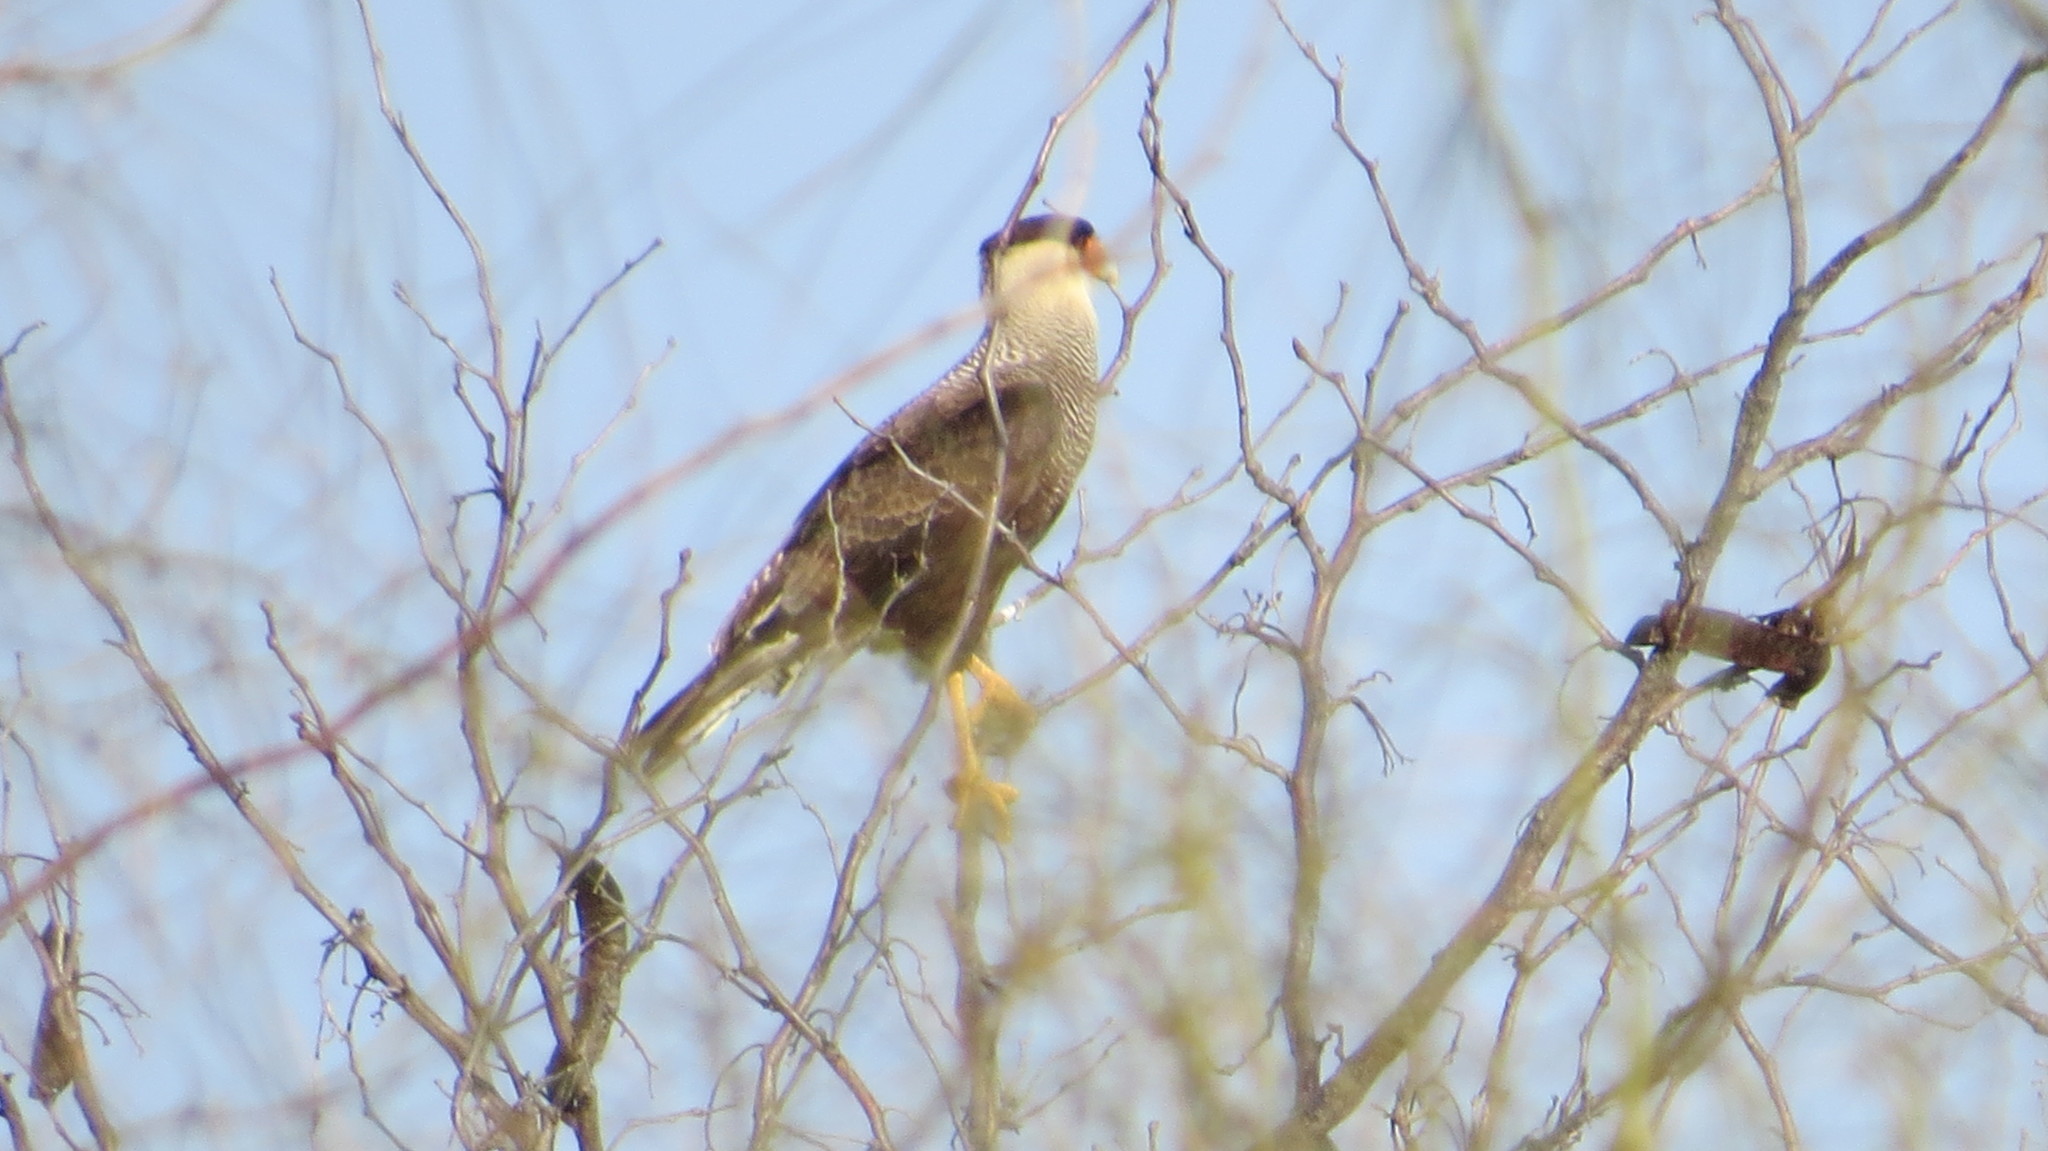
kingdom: Animalia
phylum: Chordata
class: Aves
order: Falconiformes
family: Falconidae
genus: Caracara
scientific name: Caracara plancus
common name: Southern caracara
